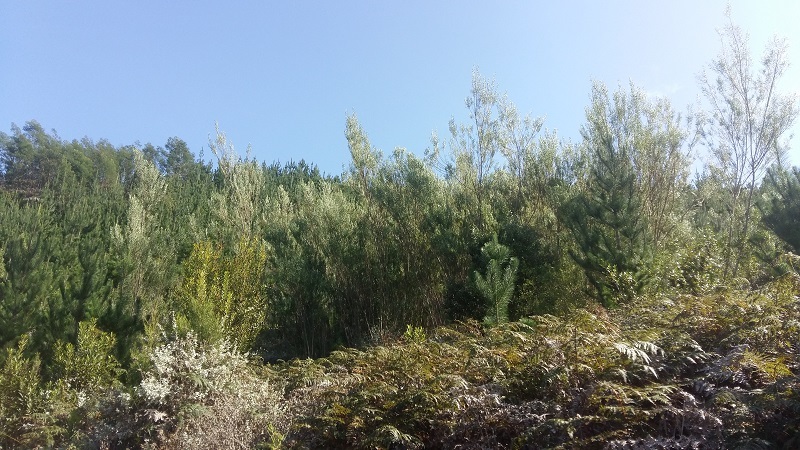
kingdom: Plantae
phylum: Tracheophyta
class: Magnoliopsida
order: Fabales
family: Fabaceae
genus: Acacia
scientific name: Acacia stricta
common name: Hop wattle
